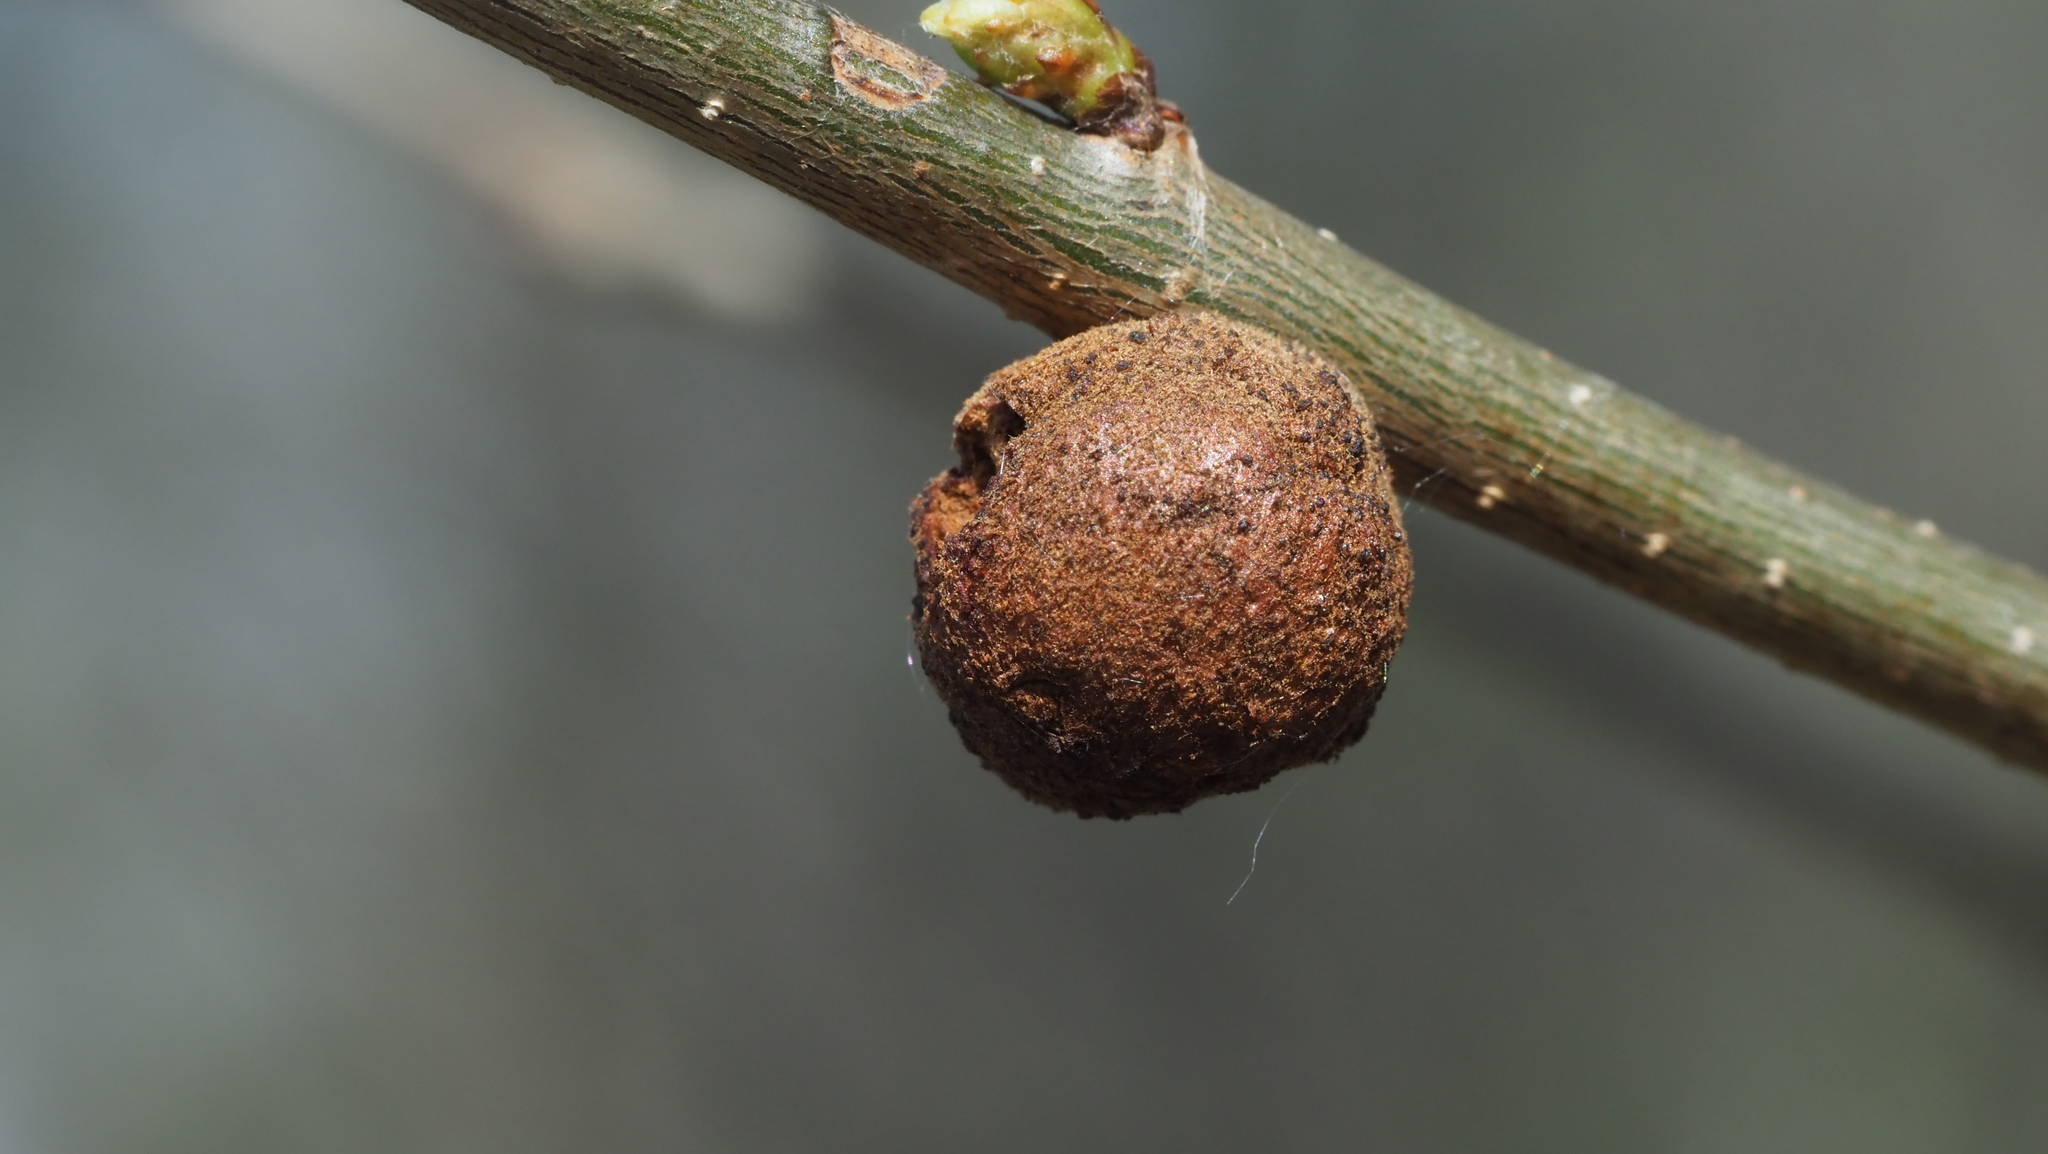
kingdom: Animalia
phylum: Arthropoda
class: Insecta
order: Hymenoptera
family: Cynipidae
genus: Disholcaspis
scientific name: Disholcaspis
